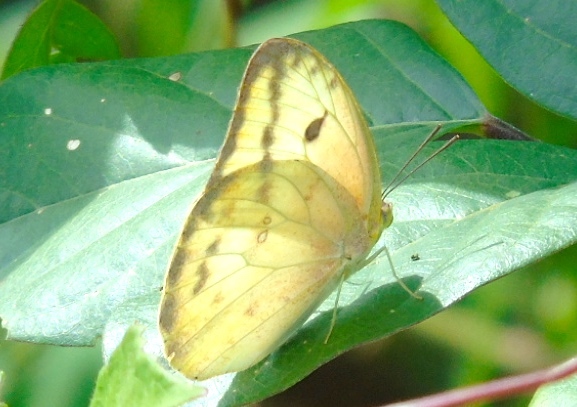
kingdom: Animalia
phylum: Arthropoda
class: Insecta
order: Lepidoptera
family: Pieridae
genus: Phoebis
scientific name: Phoebis agarithe
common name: Large orange sulphur
